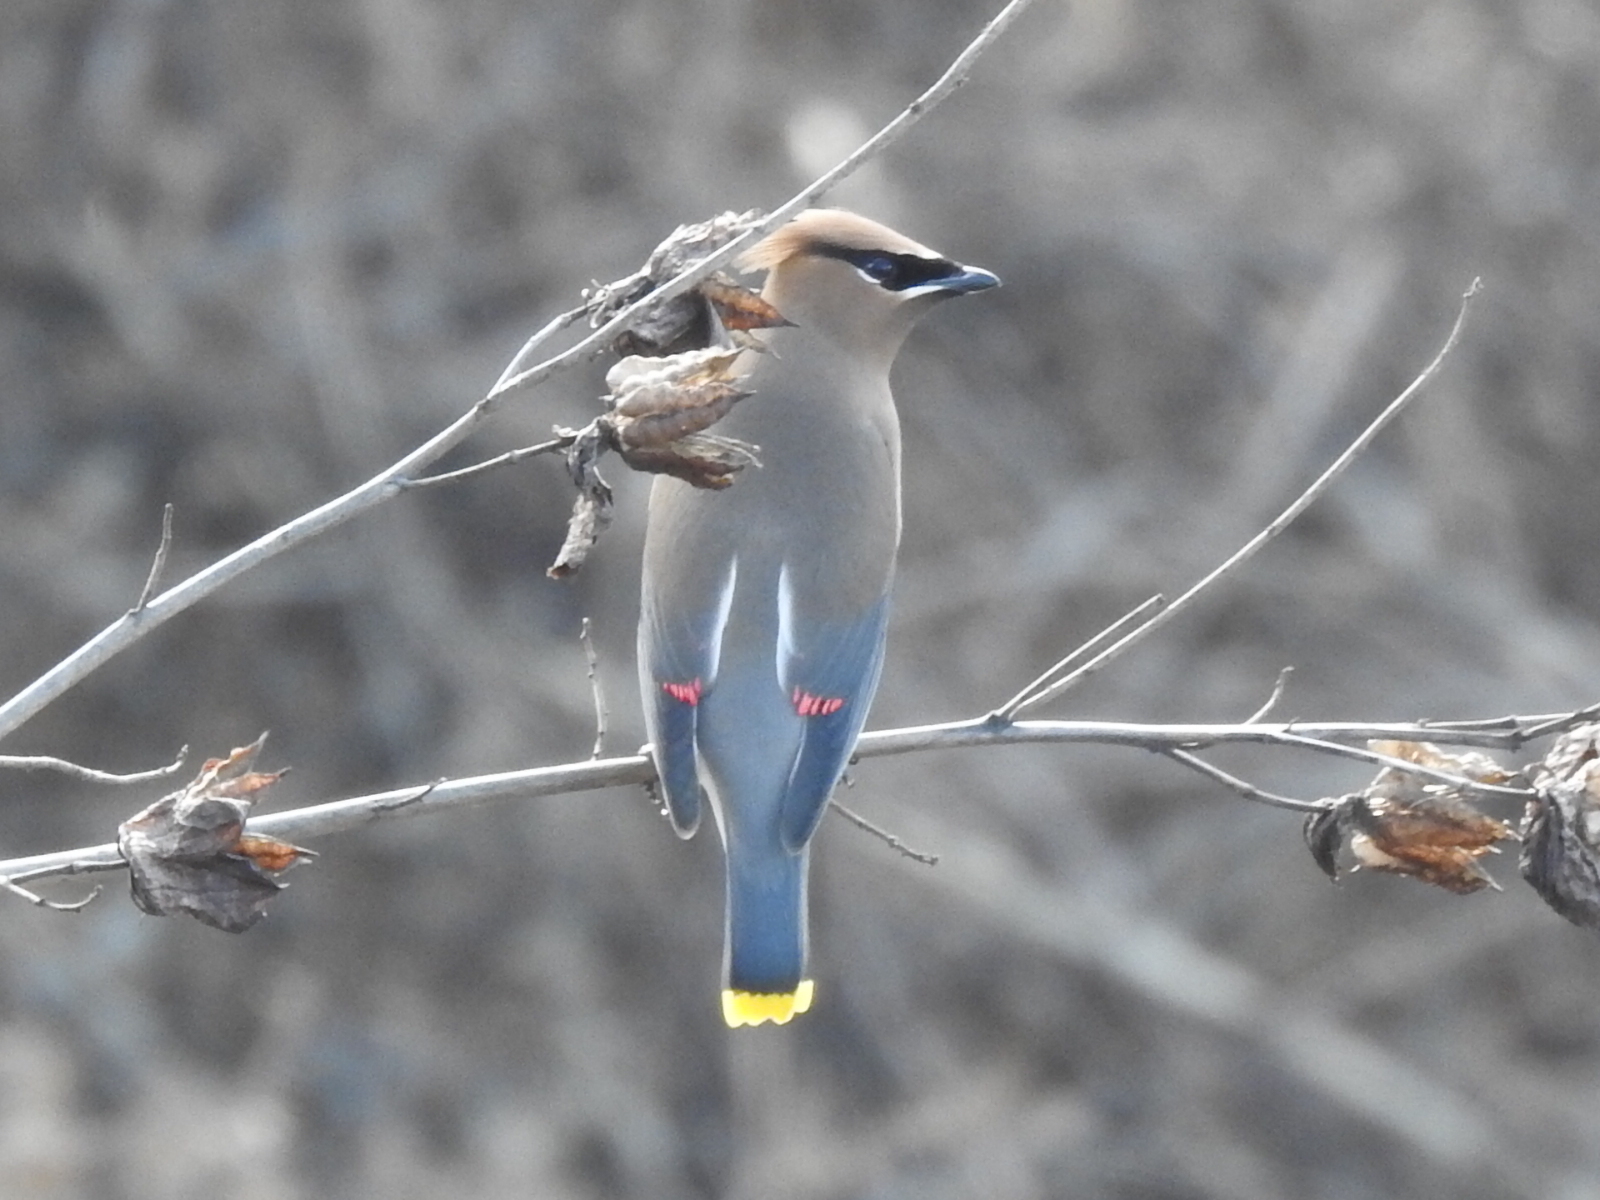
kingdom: Animalia
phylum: Chordata
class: Aves
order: Passeriformes
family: Bombycillidae
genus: Bombycilla
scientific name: Bombycilla cedrorum
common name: Cedar waxwing
